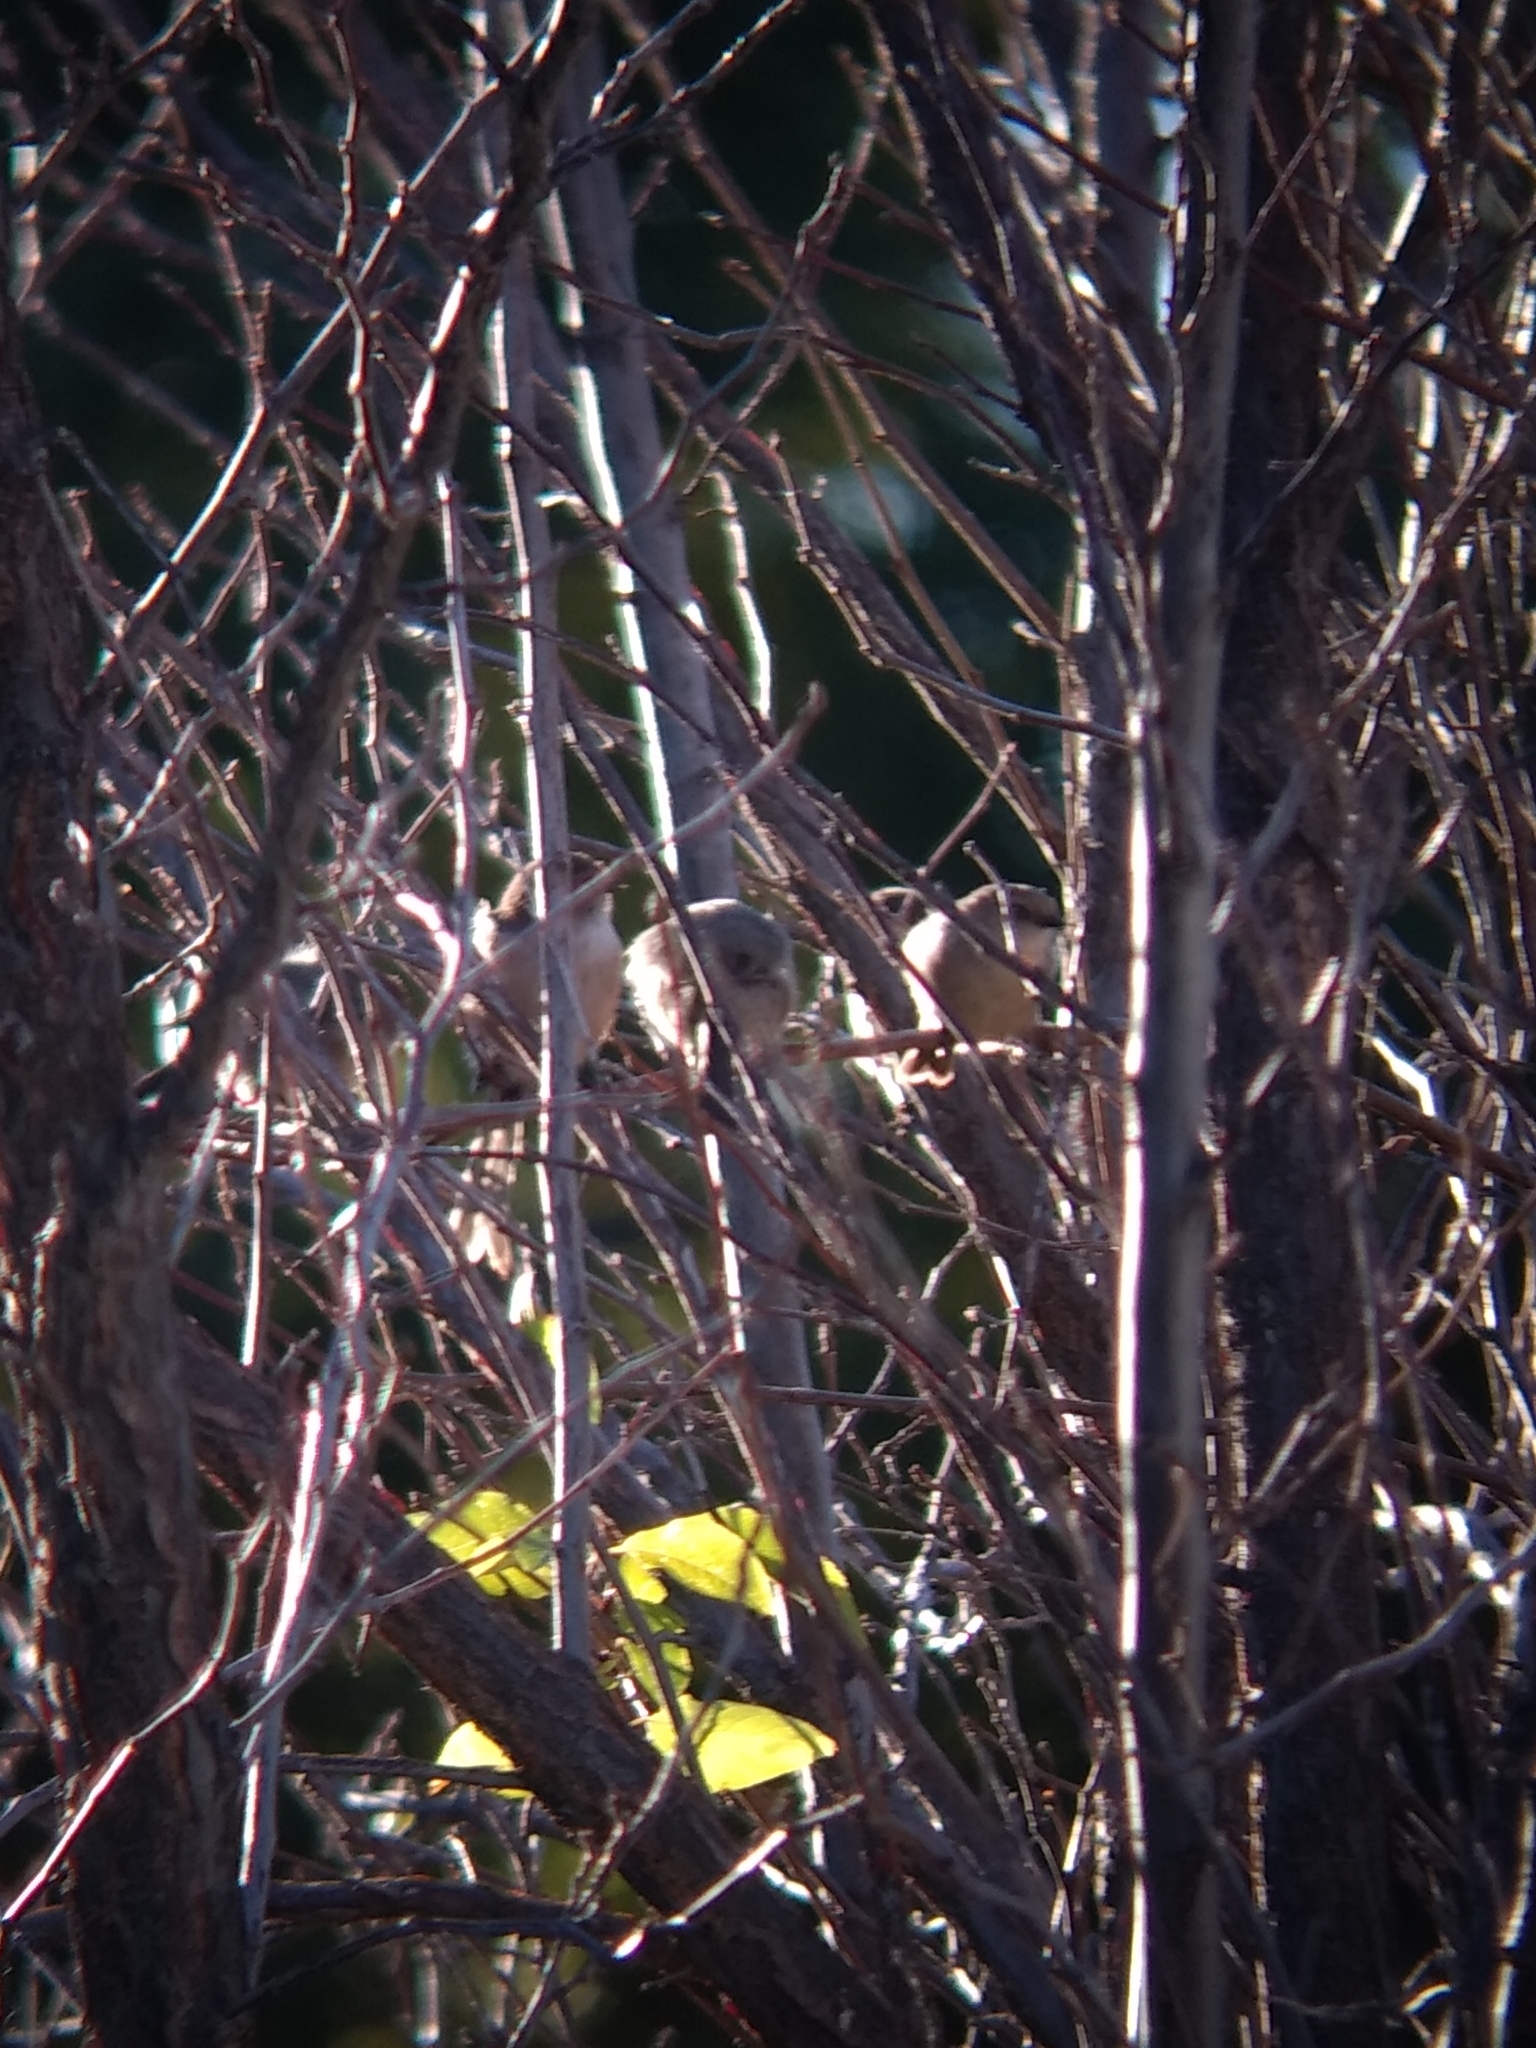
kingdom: Animalia
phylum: Chordata
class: Aves
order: Passeriformes
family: Aegithalidae
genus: Psaltriparus
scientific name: Psaltriparus minimus
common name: American bushtit
